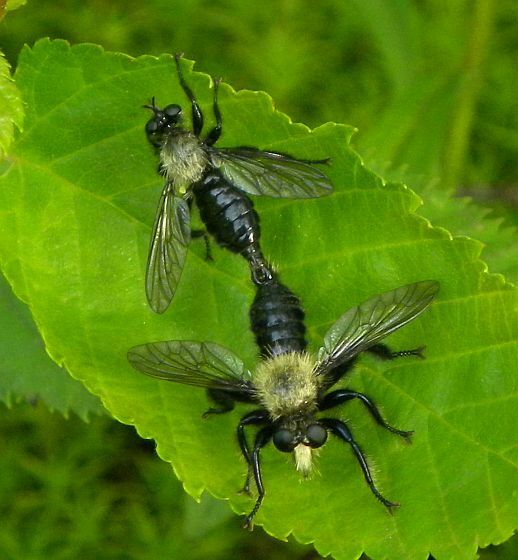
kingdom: Animalia
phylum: Arthropoda
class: Insecta
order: Diptera
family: Asilidae
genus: Laphria
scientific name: Laphria flavicollis
